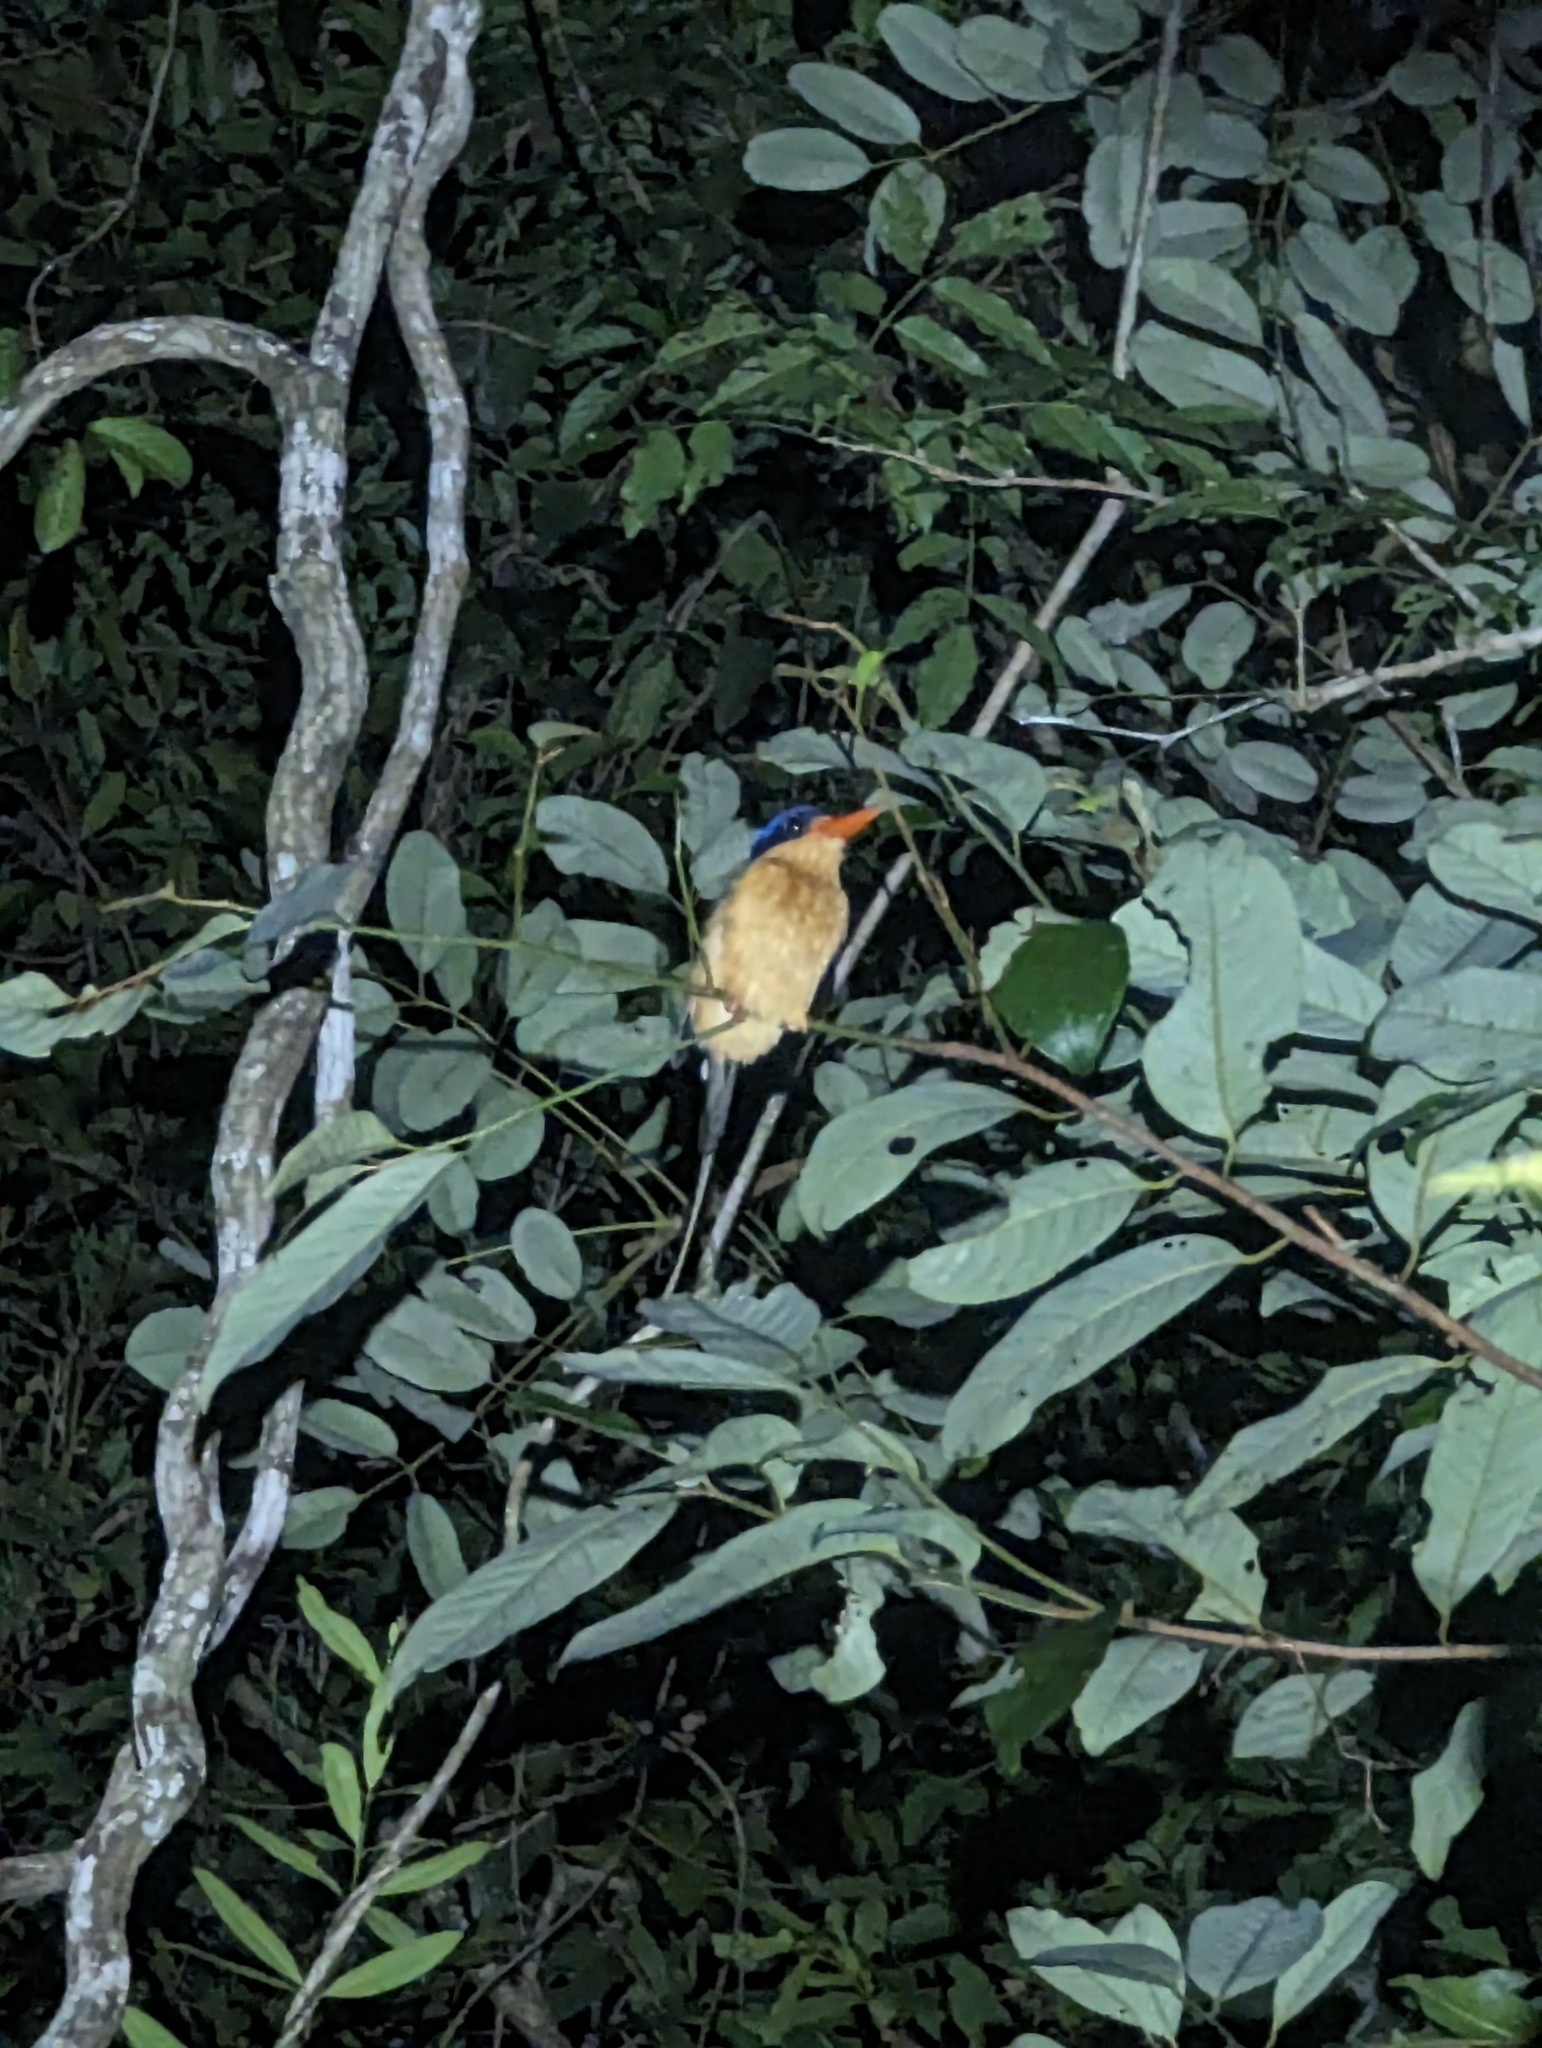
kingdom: Animalia
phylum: Chordata
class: Aves
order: Coraciiformes
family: Alcedinidae
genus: Tanysiptera
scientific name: Tanysiptera sylvia
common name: Buff-breasted paradise kingfisher
